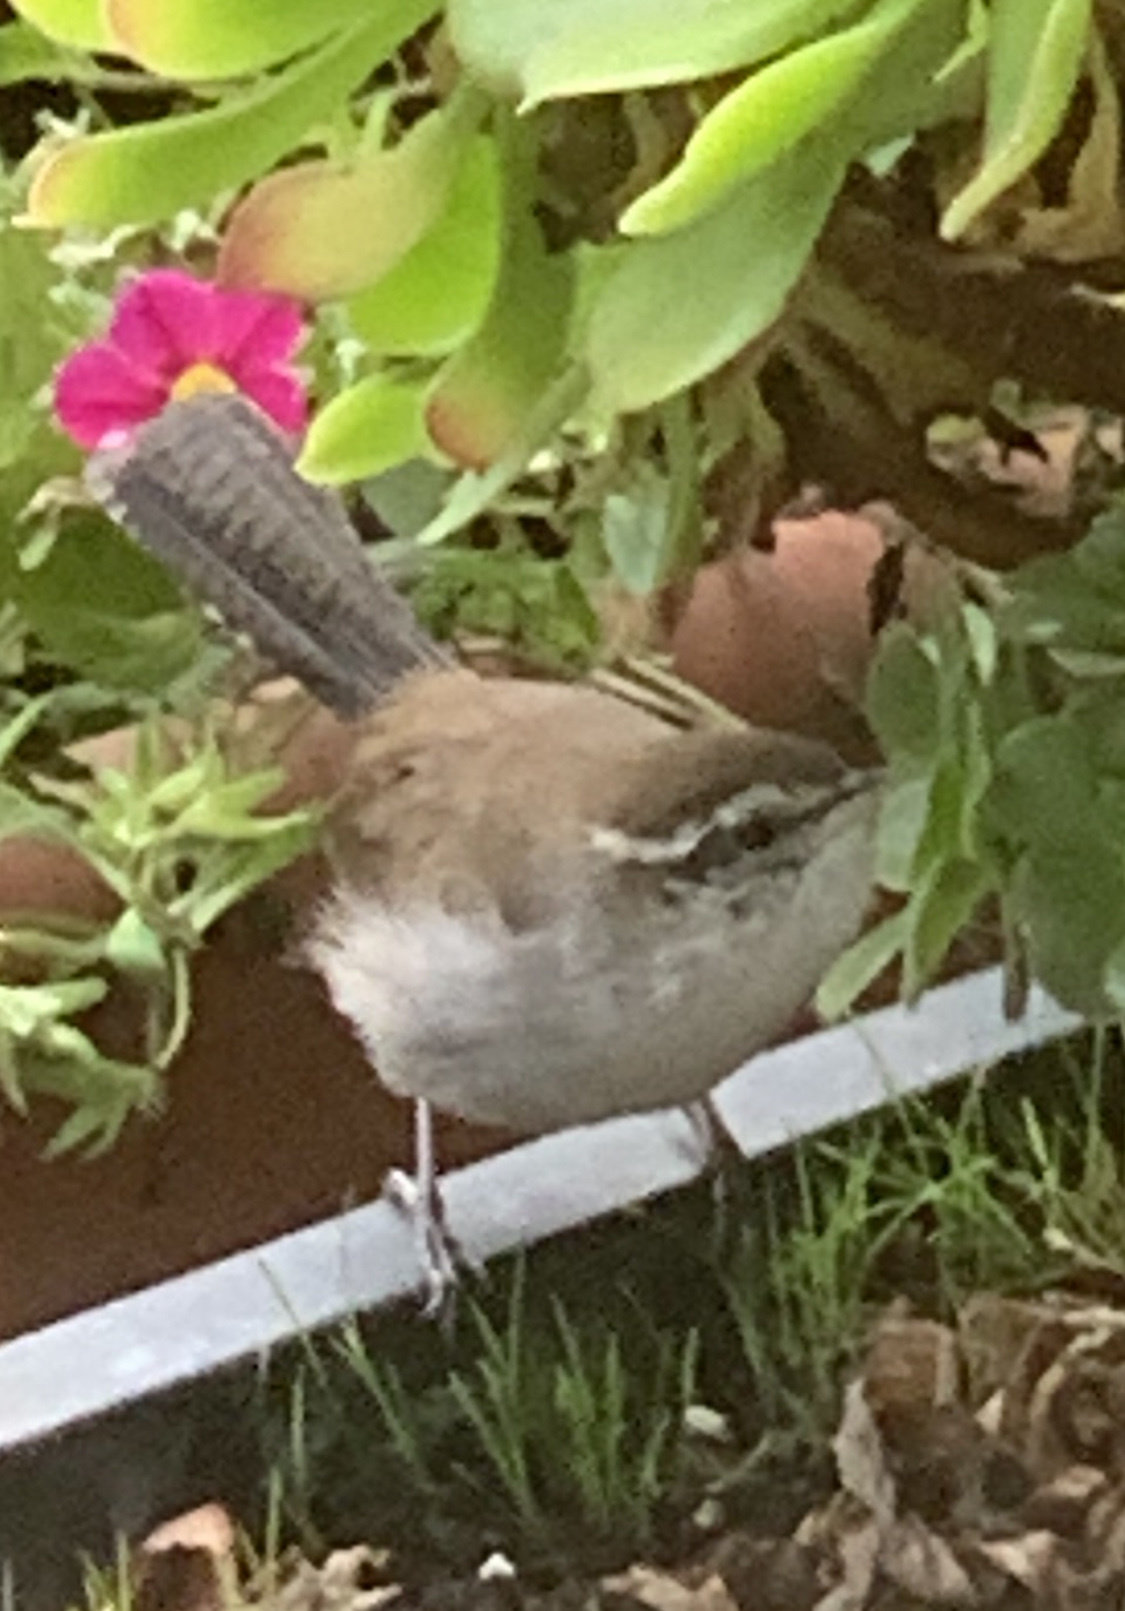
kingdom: Animalia
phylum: Chordata
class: Aves
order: Passeriformes
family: Troglodytidae
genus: Thryomanes
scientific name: Thryomanes bewickii
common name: Bewick's wren
